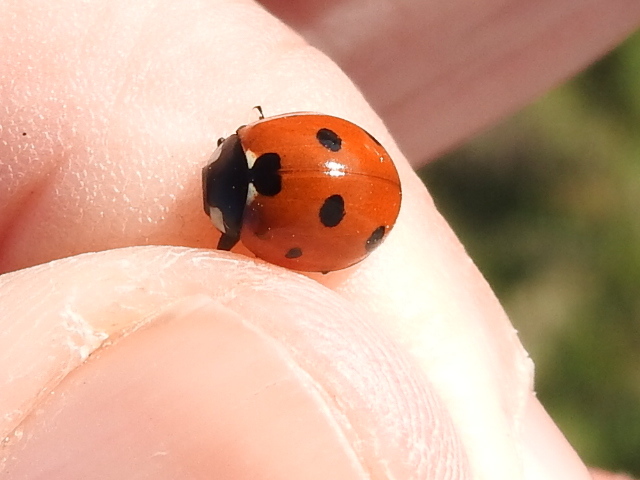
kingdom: Animalia
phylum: Arthropoda
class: Insecta
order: Coleoptera
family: Coccinellidae
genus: Coccinella
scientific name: Coccinella septempunctata
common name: Sevenspotted lady beetle
